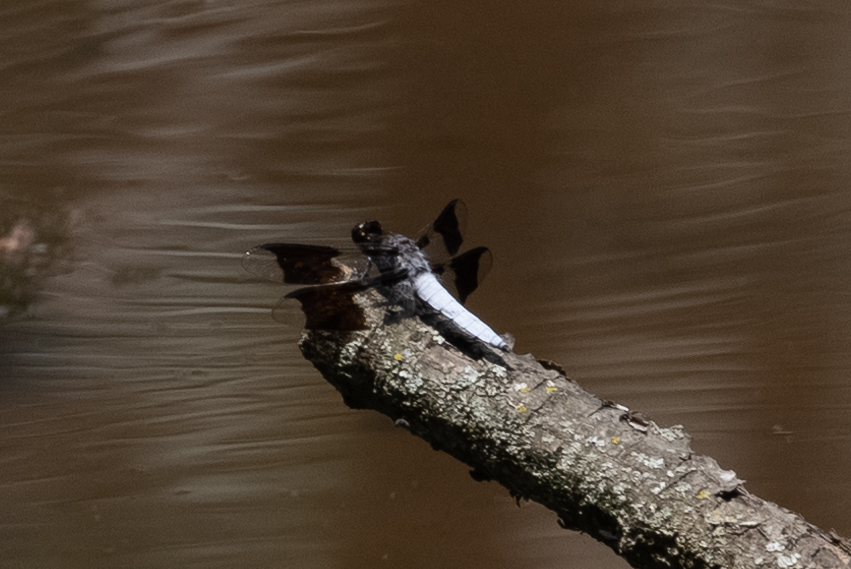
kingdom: Animalia
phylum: Arthropoda
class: Insecta
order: Odonata
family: Libellulidae
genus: Plathemis
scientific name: Plathemis lydia
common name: Common whitetail
